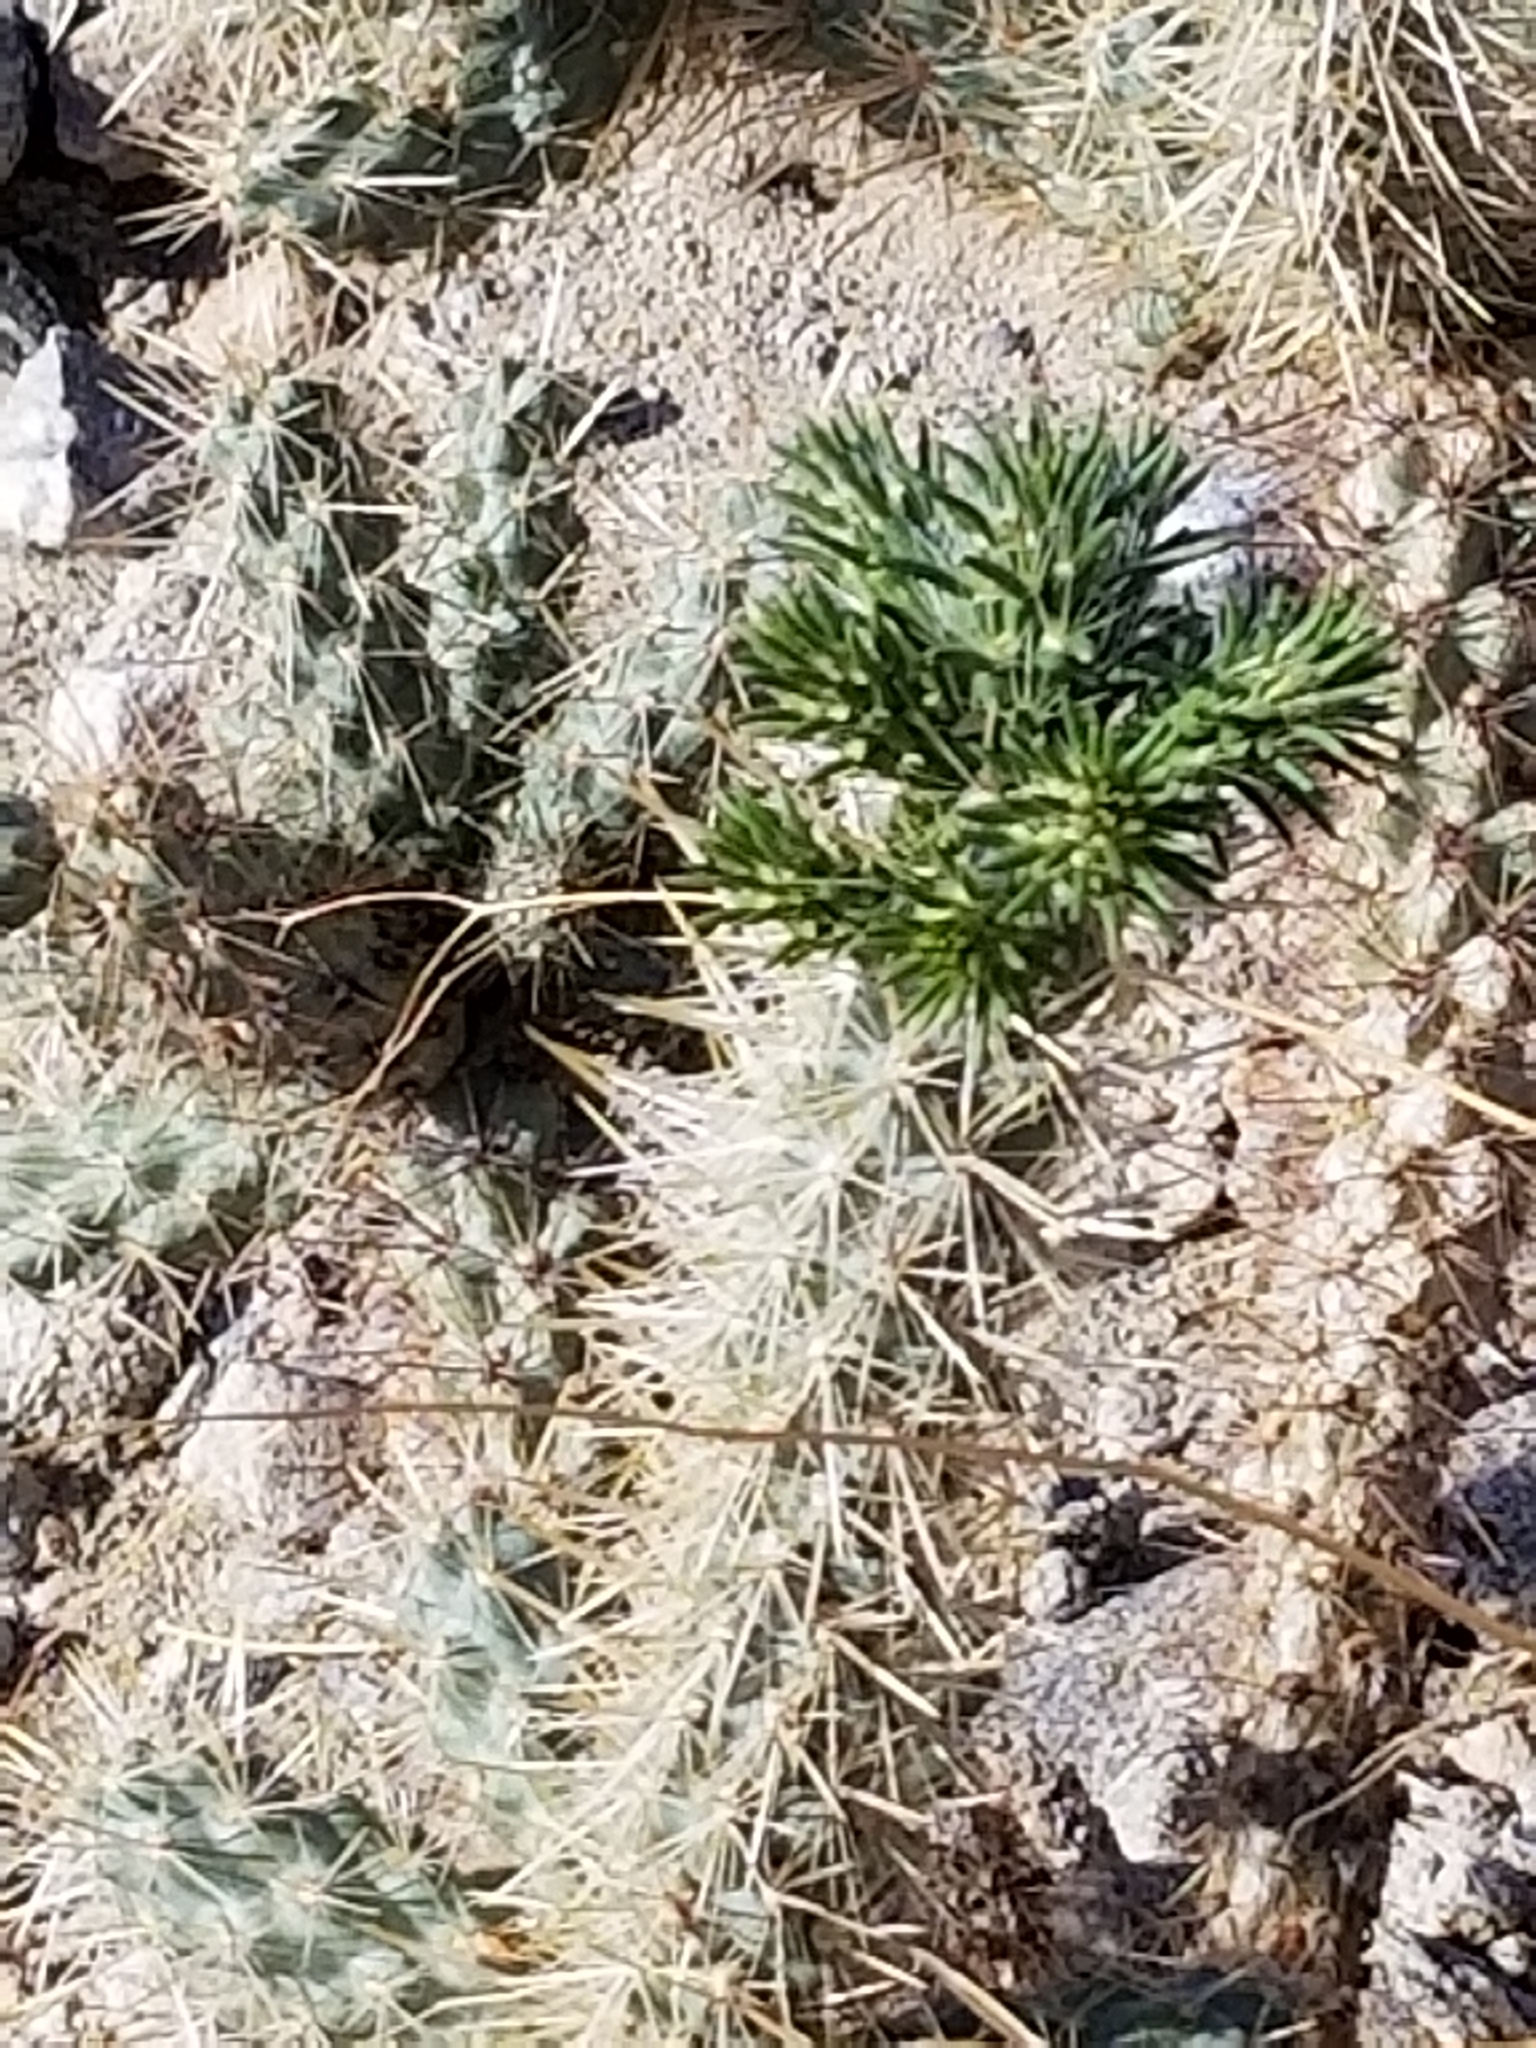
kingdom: Plantae
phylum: Tracheophyta
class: Magnoliopsida
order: Caryophyllales
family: Cactaceae
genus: Cylindropuntia
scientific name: Cylindropuntia ganderi
